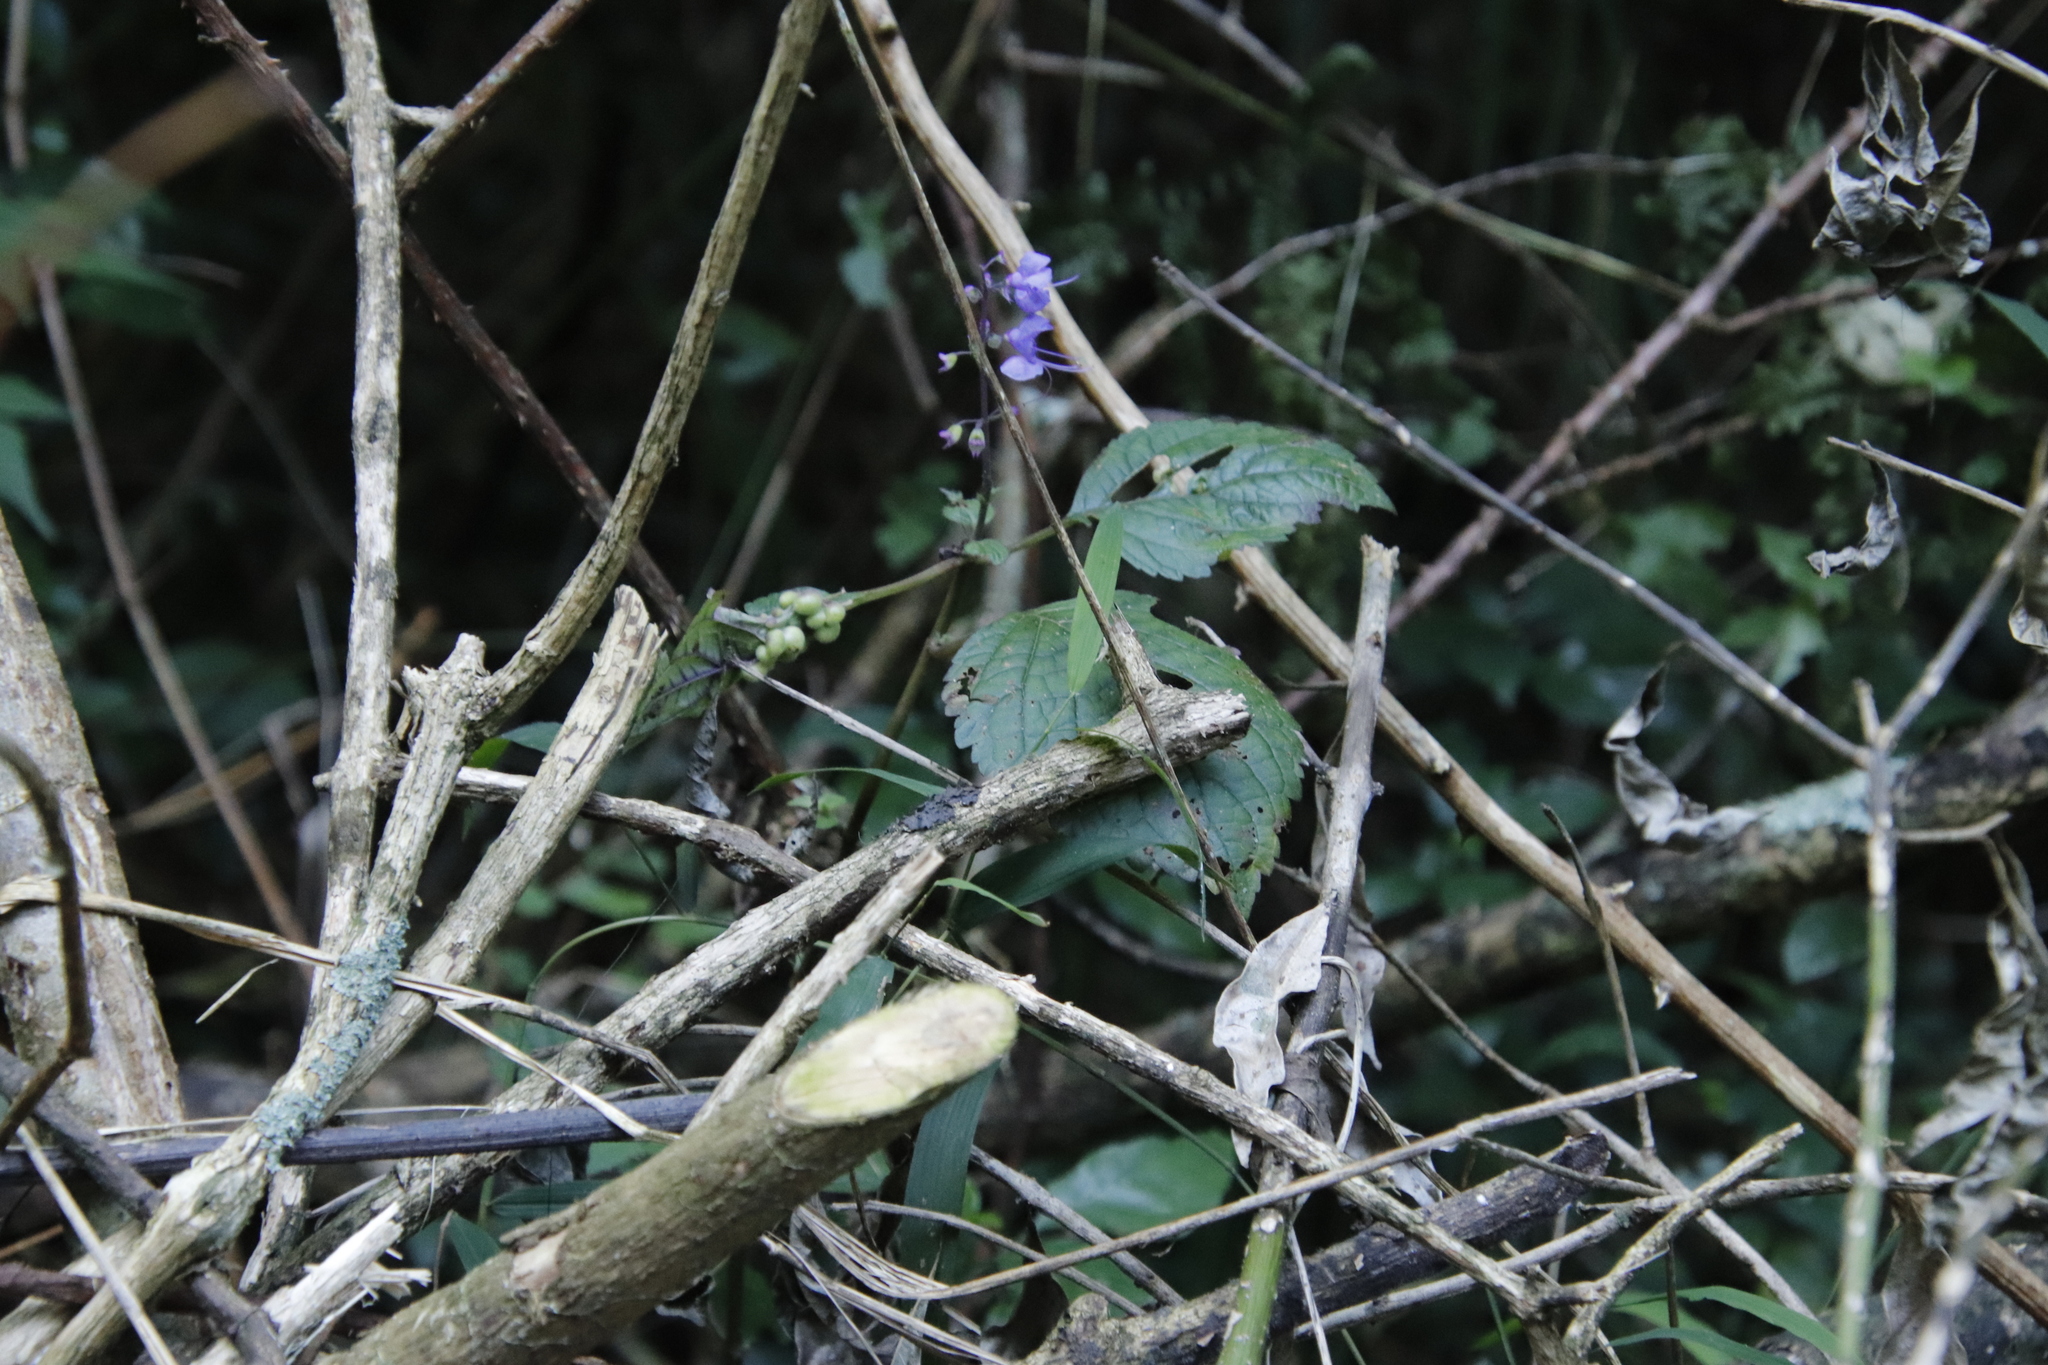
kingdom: Plantae
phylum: Tracheophyta
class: Magnoliopsida
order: Lamiales
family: Lamiaceae
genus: Plectranthus
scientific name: Plectranthus fruticosus
